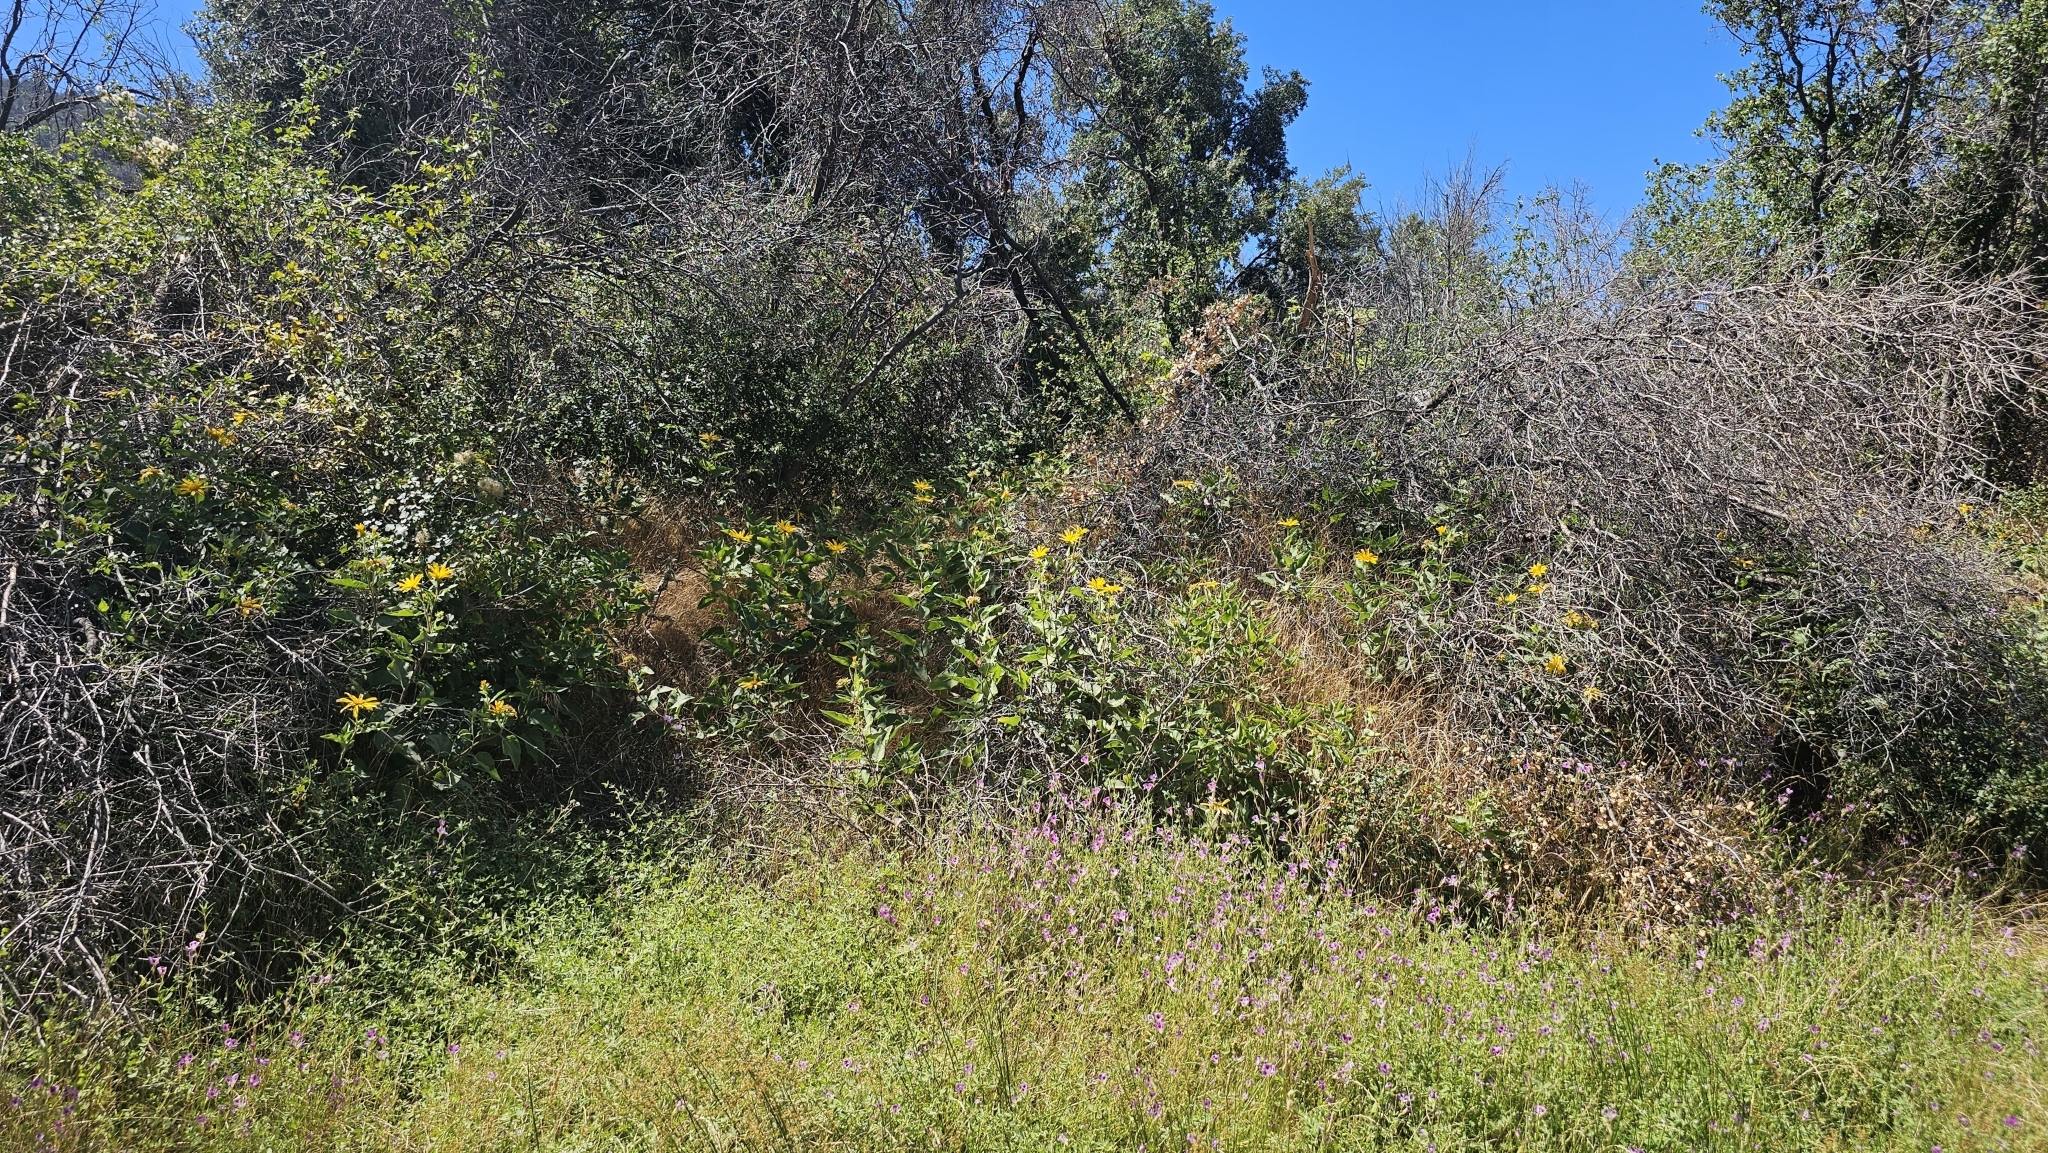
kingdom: Plantae
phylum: Tracheophyta
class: Magnoliopsida
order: Asterales
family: Asteraceae
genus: Agnorhiza
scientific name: Agnorhiza elata
